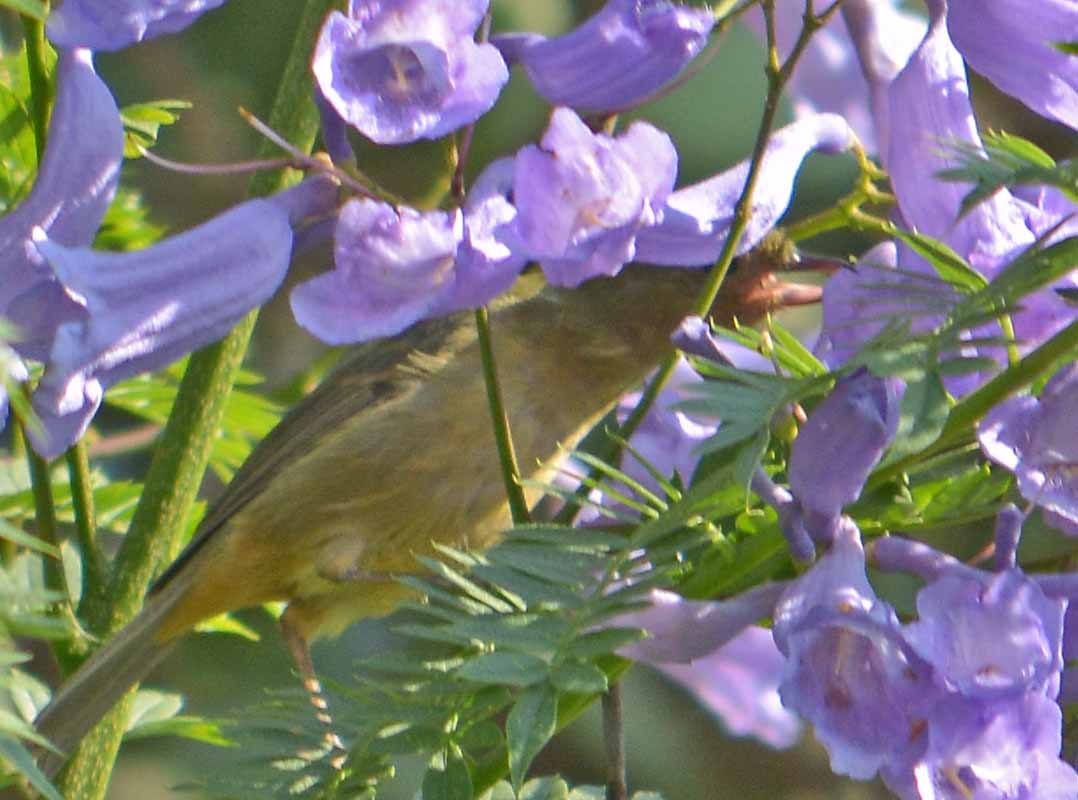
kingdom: Animalia
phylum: Chordata
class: Aves
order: Passeriformes
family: Thraupidae
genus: Diglossa
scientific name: Diglossa baritula
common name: Cinnamon-bellied flowerpiercer
